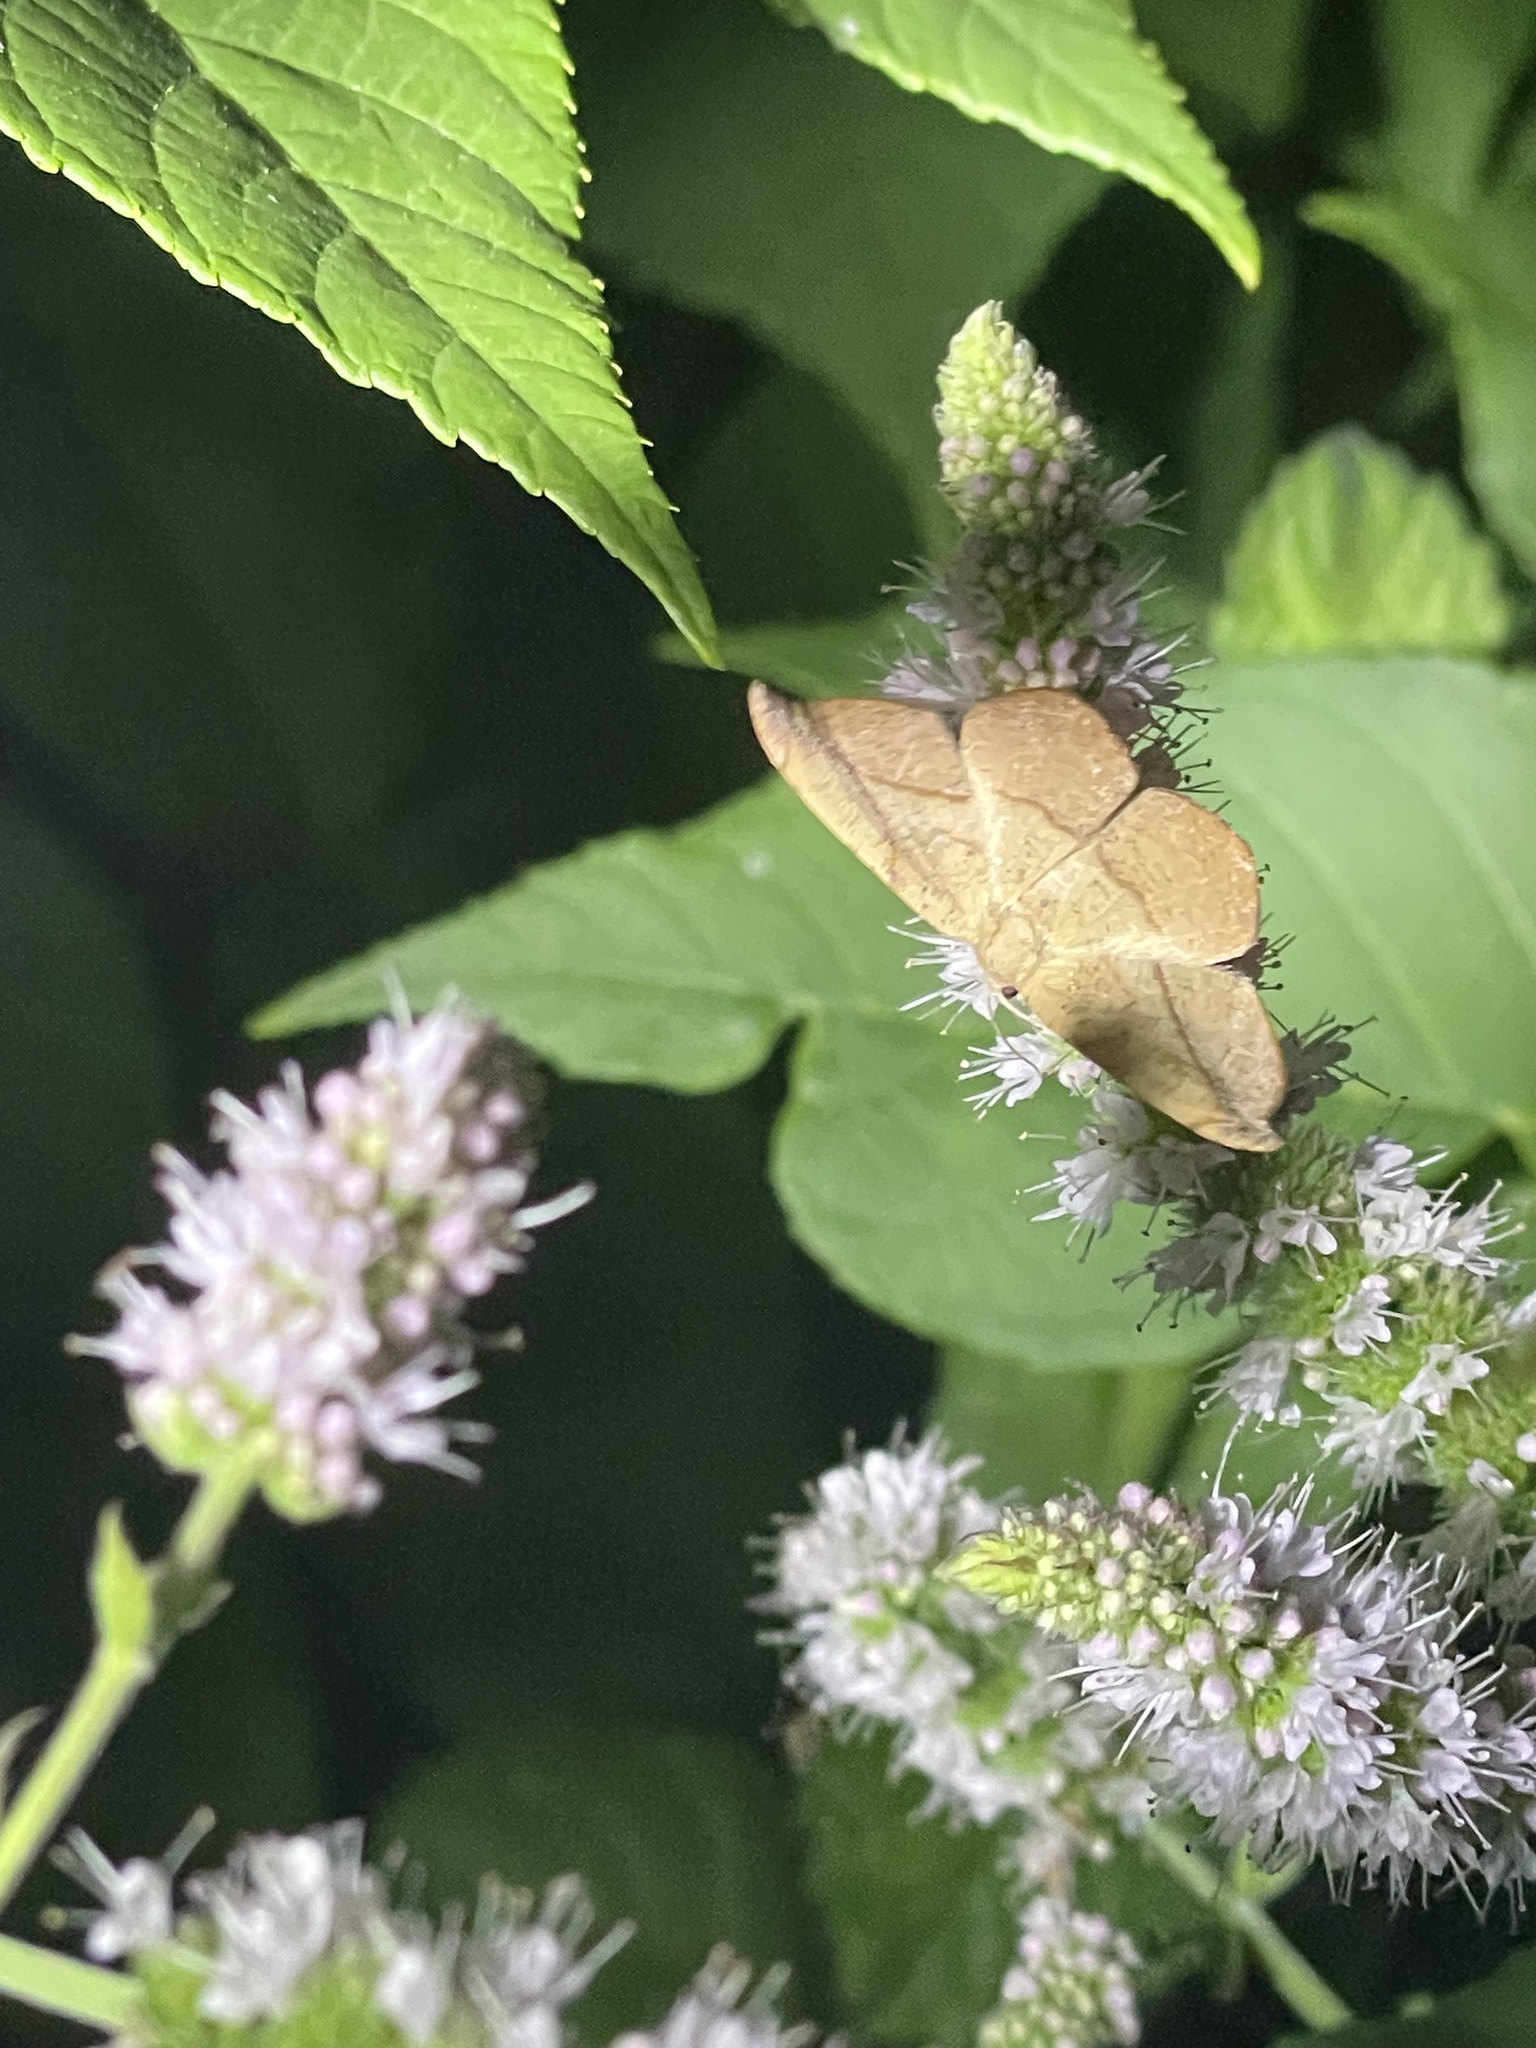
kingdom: Animalia
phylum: Arthropoda
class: Insecta
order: Lepidoptera
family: Geometridae
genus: Patalene
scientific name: Patalene olyzonaria
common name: Juniper geometer moth
